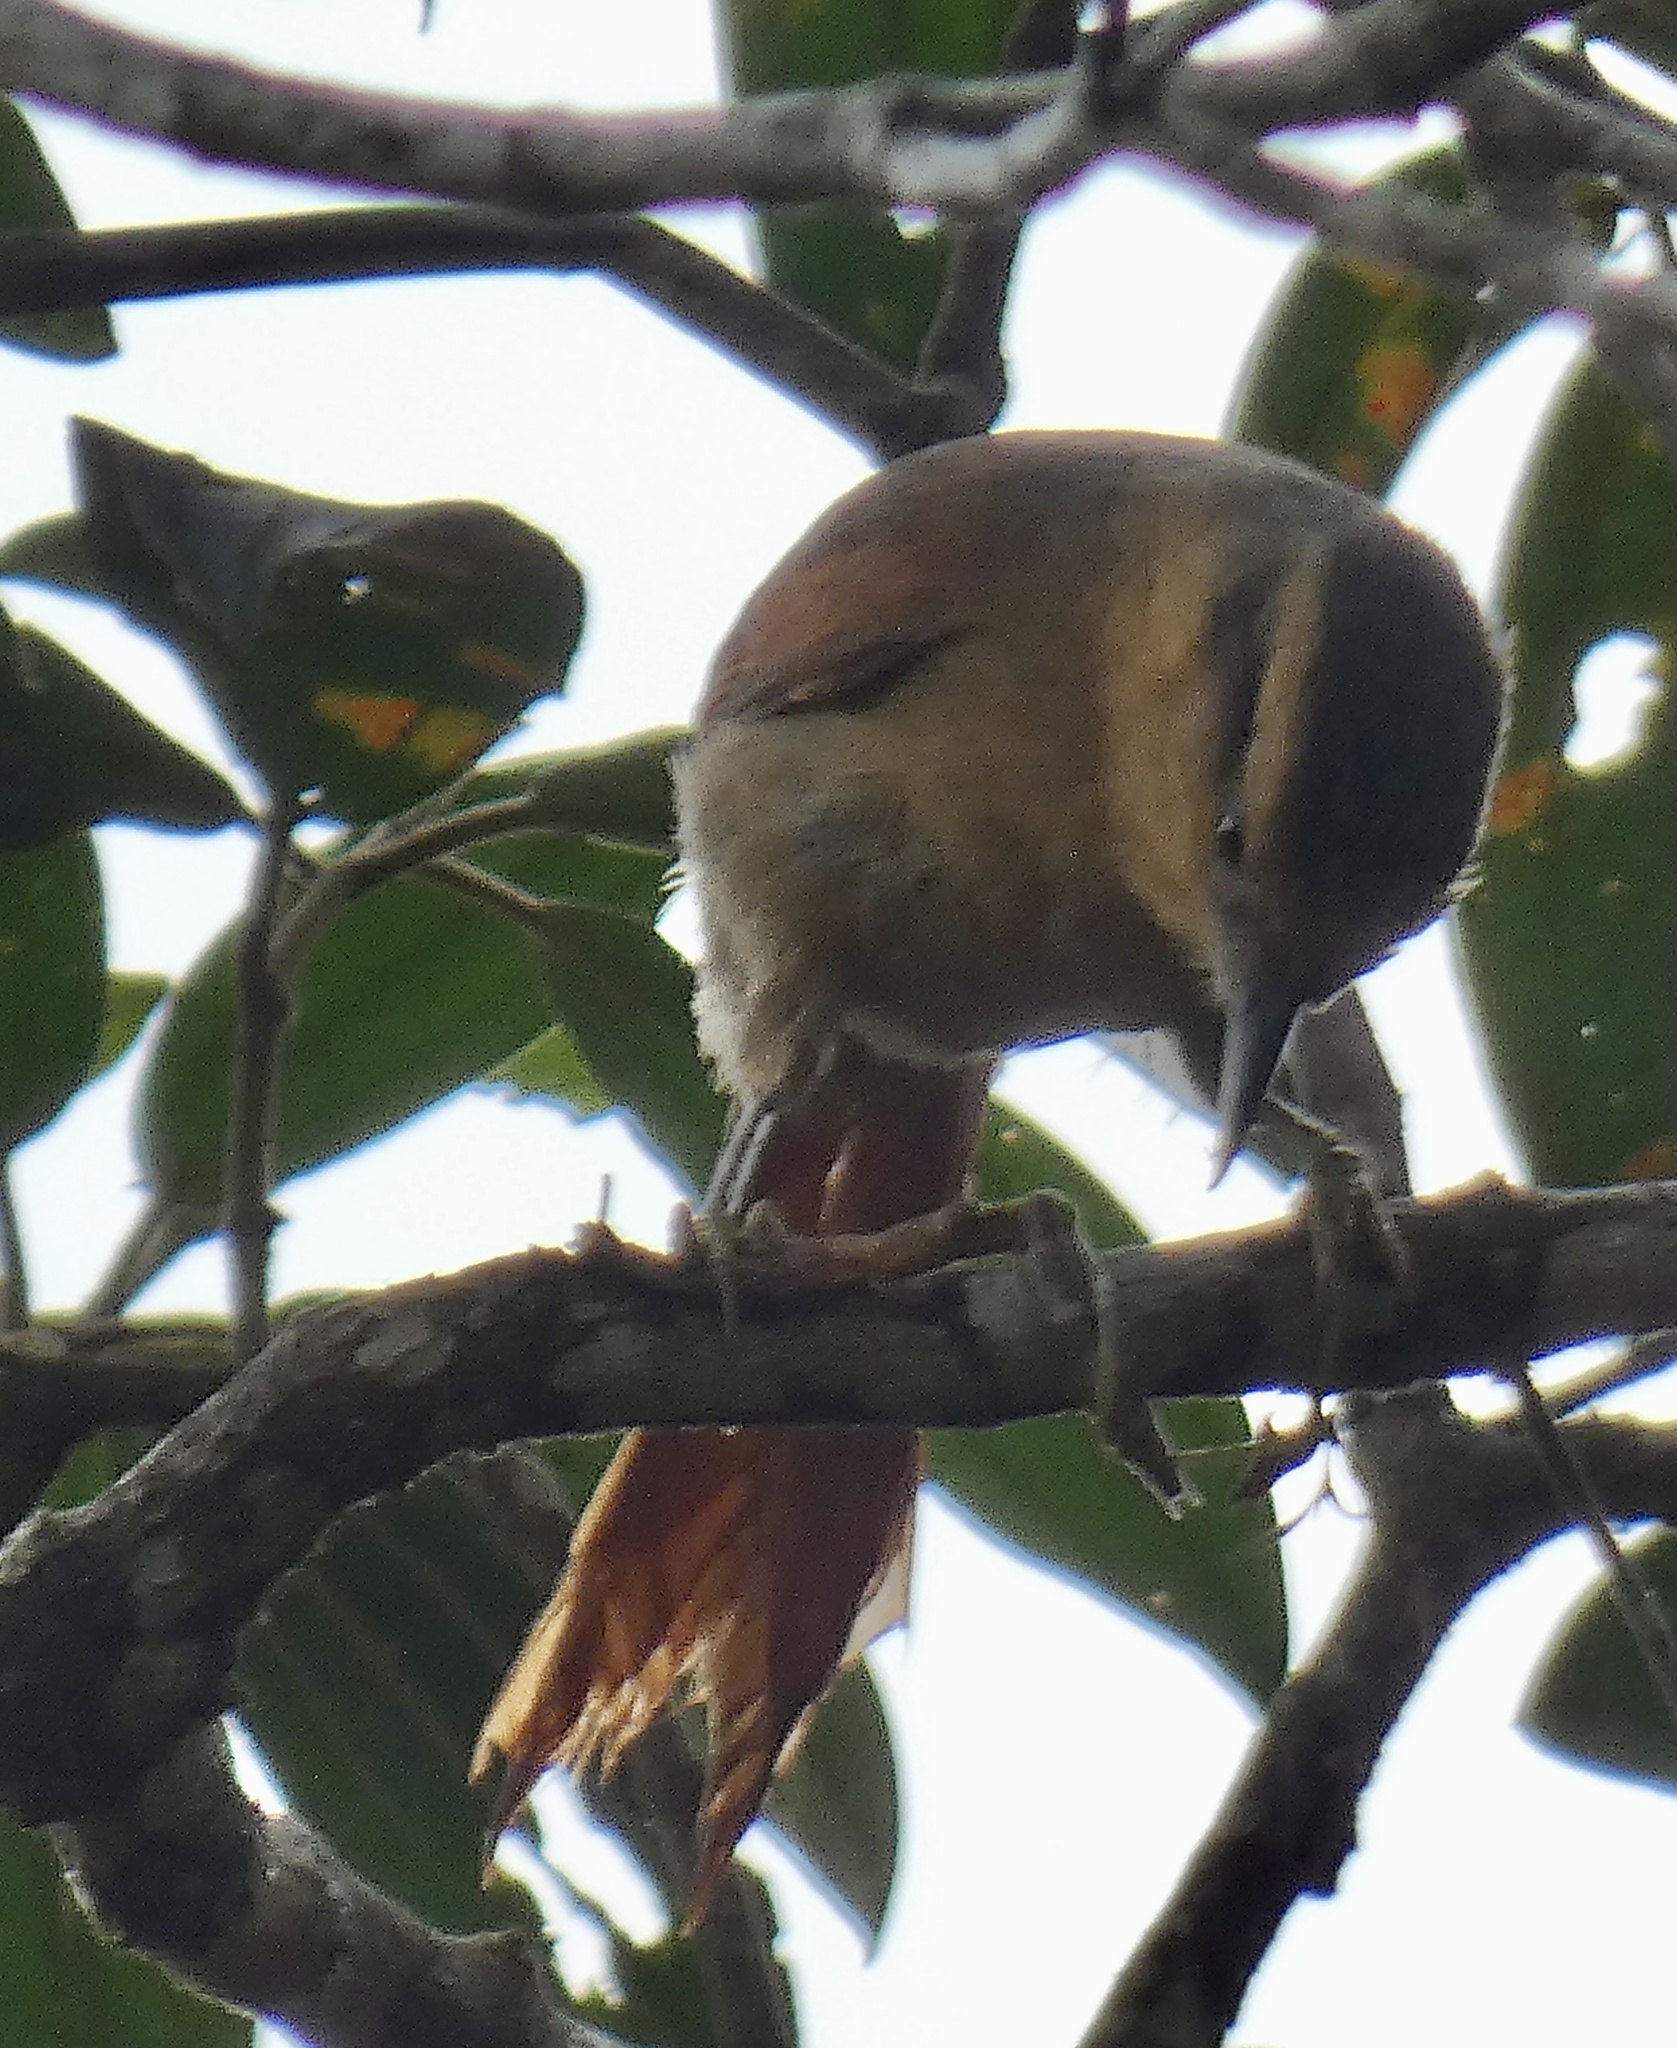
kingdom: Animalia
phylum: Chordata
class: Aves
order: Passeriformes
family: Furnariidae
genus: Philydor
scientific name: Philydor rufum
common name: Buff-fronted foliage-gleaner
